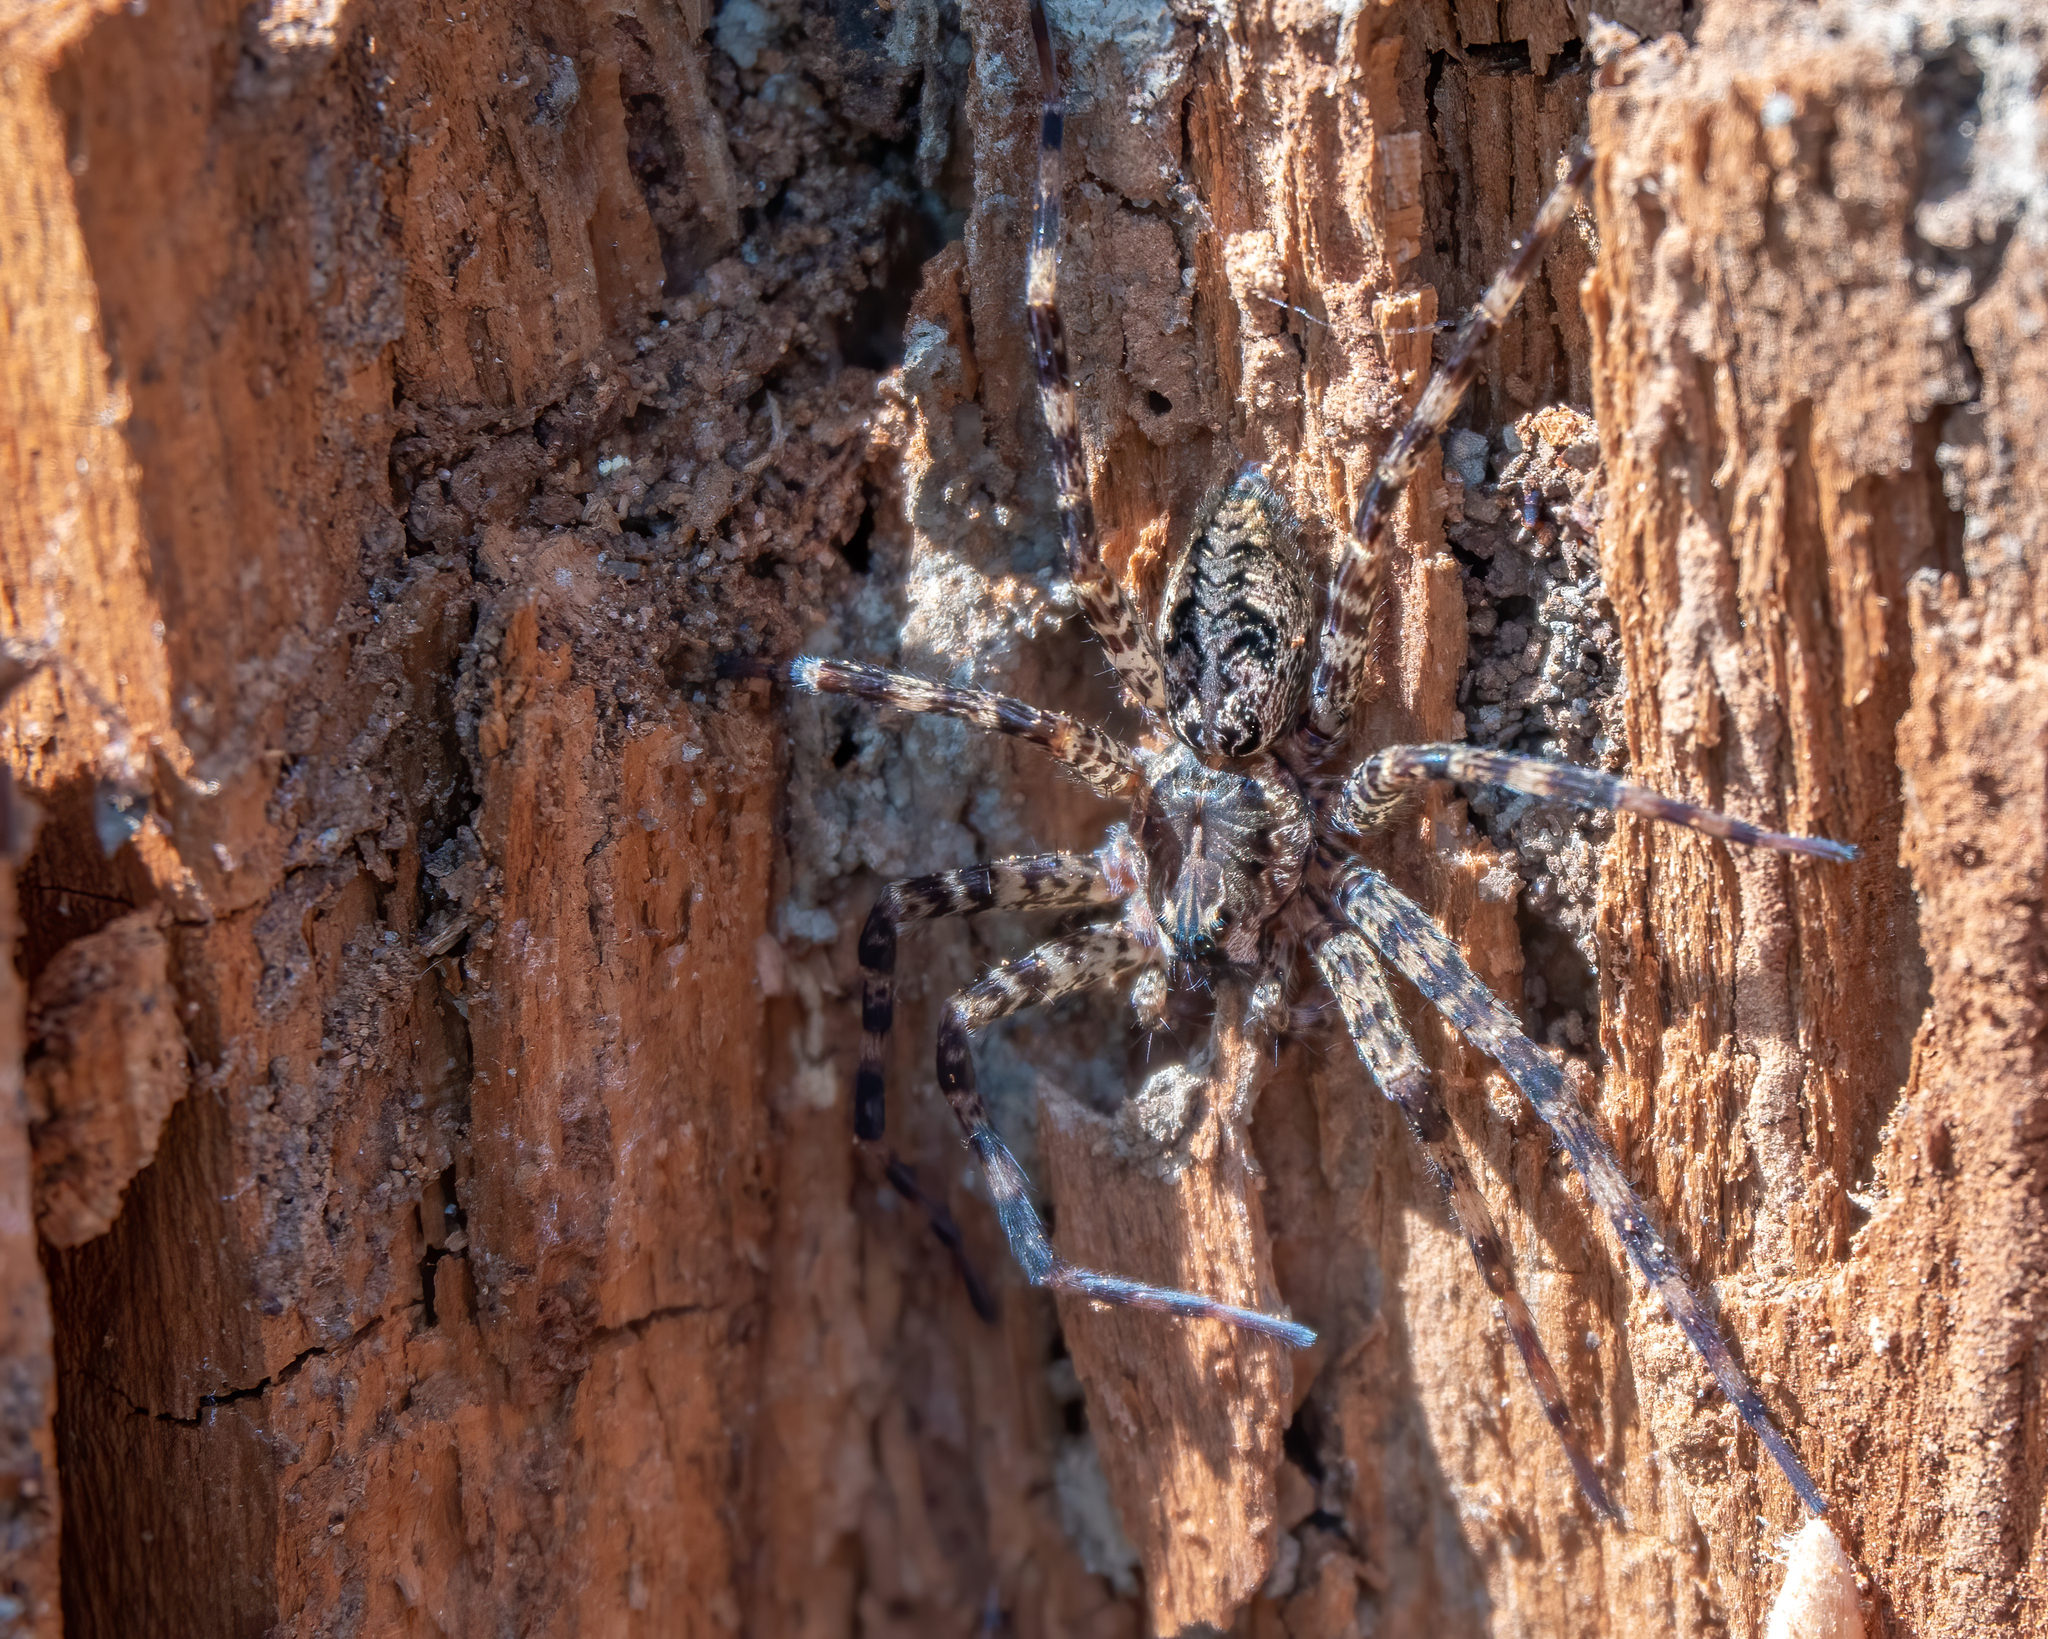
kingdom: Animalia
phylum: Arthropoda
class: Arachnida
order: Araneae
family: Pisauridae
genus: Dolomedes
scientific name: Dolomedes tenebrosus
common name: Dark fishing spider
